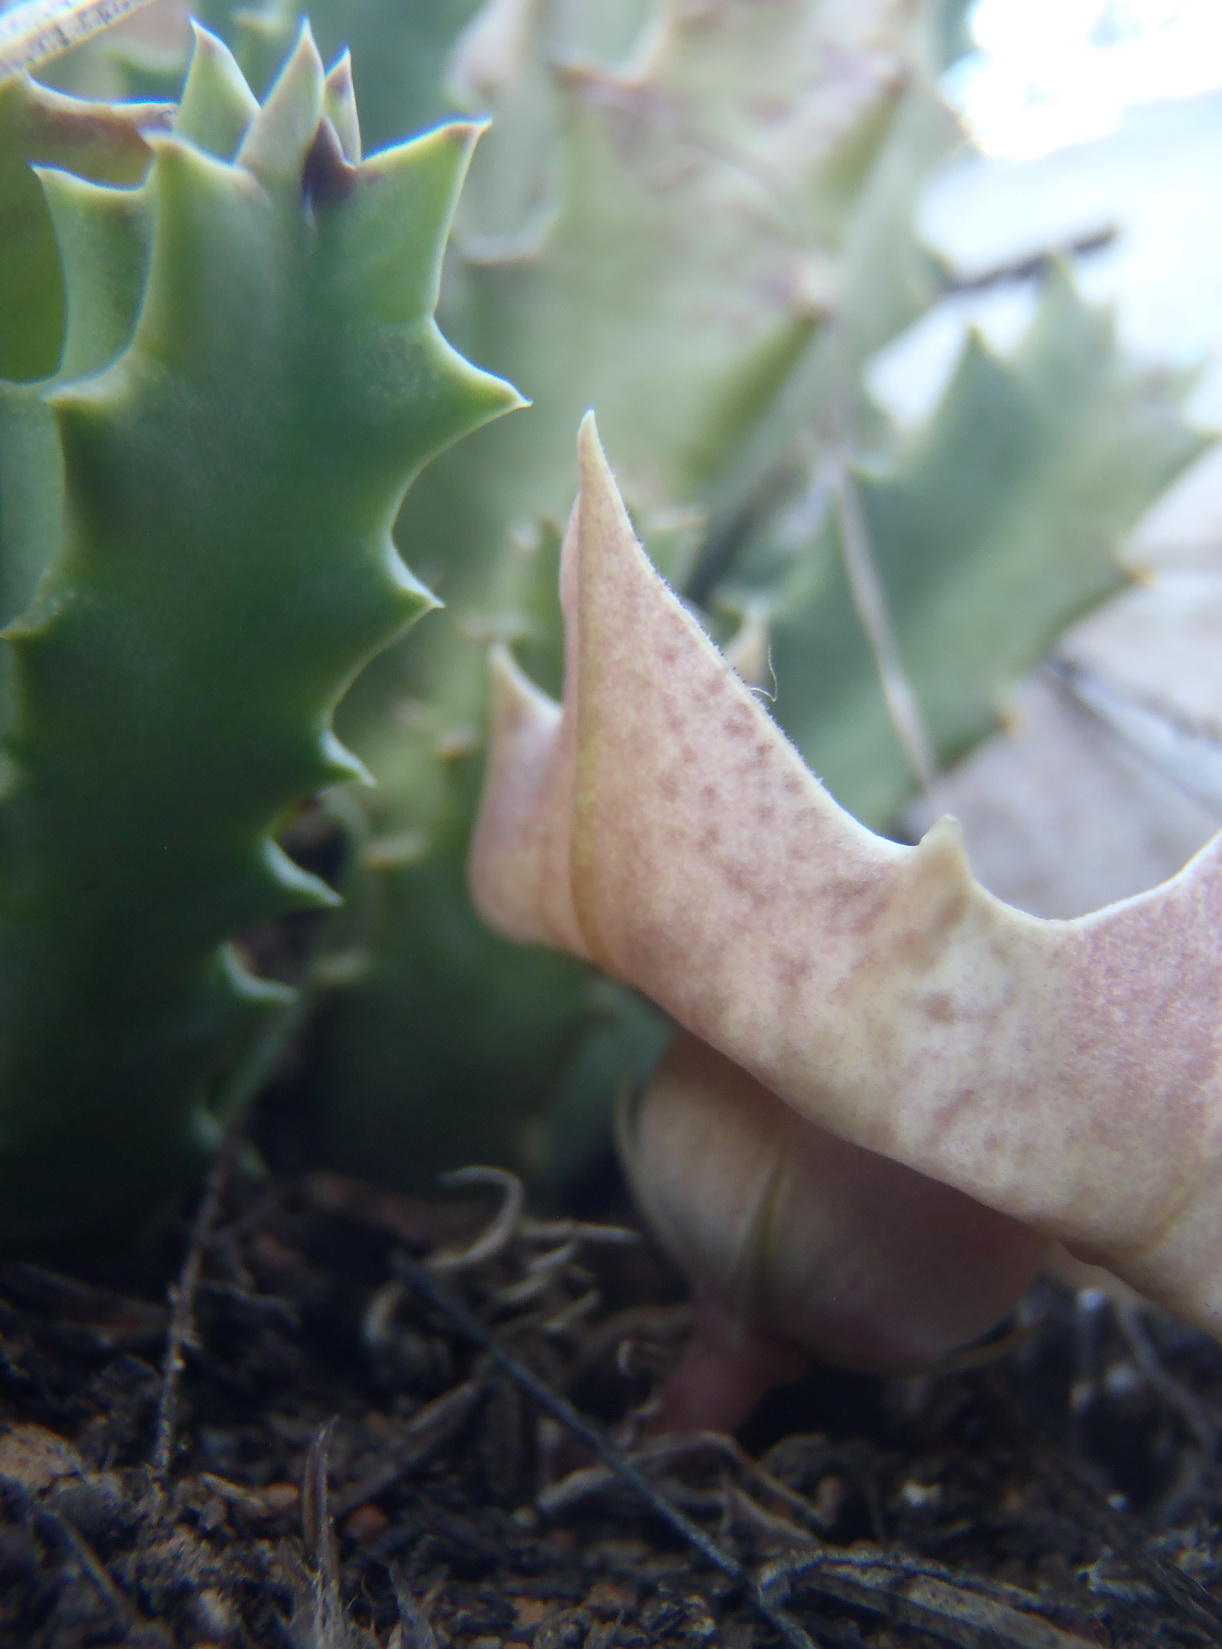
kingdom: Plantae
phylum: Tracheophyta
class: Magnoliopsida
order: Gentianales
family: Apocynaceae
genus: Ceropegia
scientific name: Ceropegia guttata
